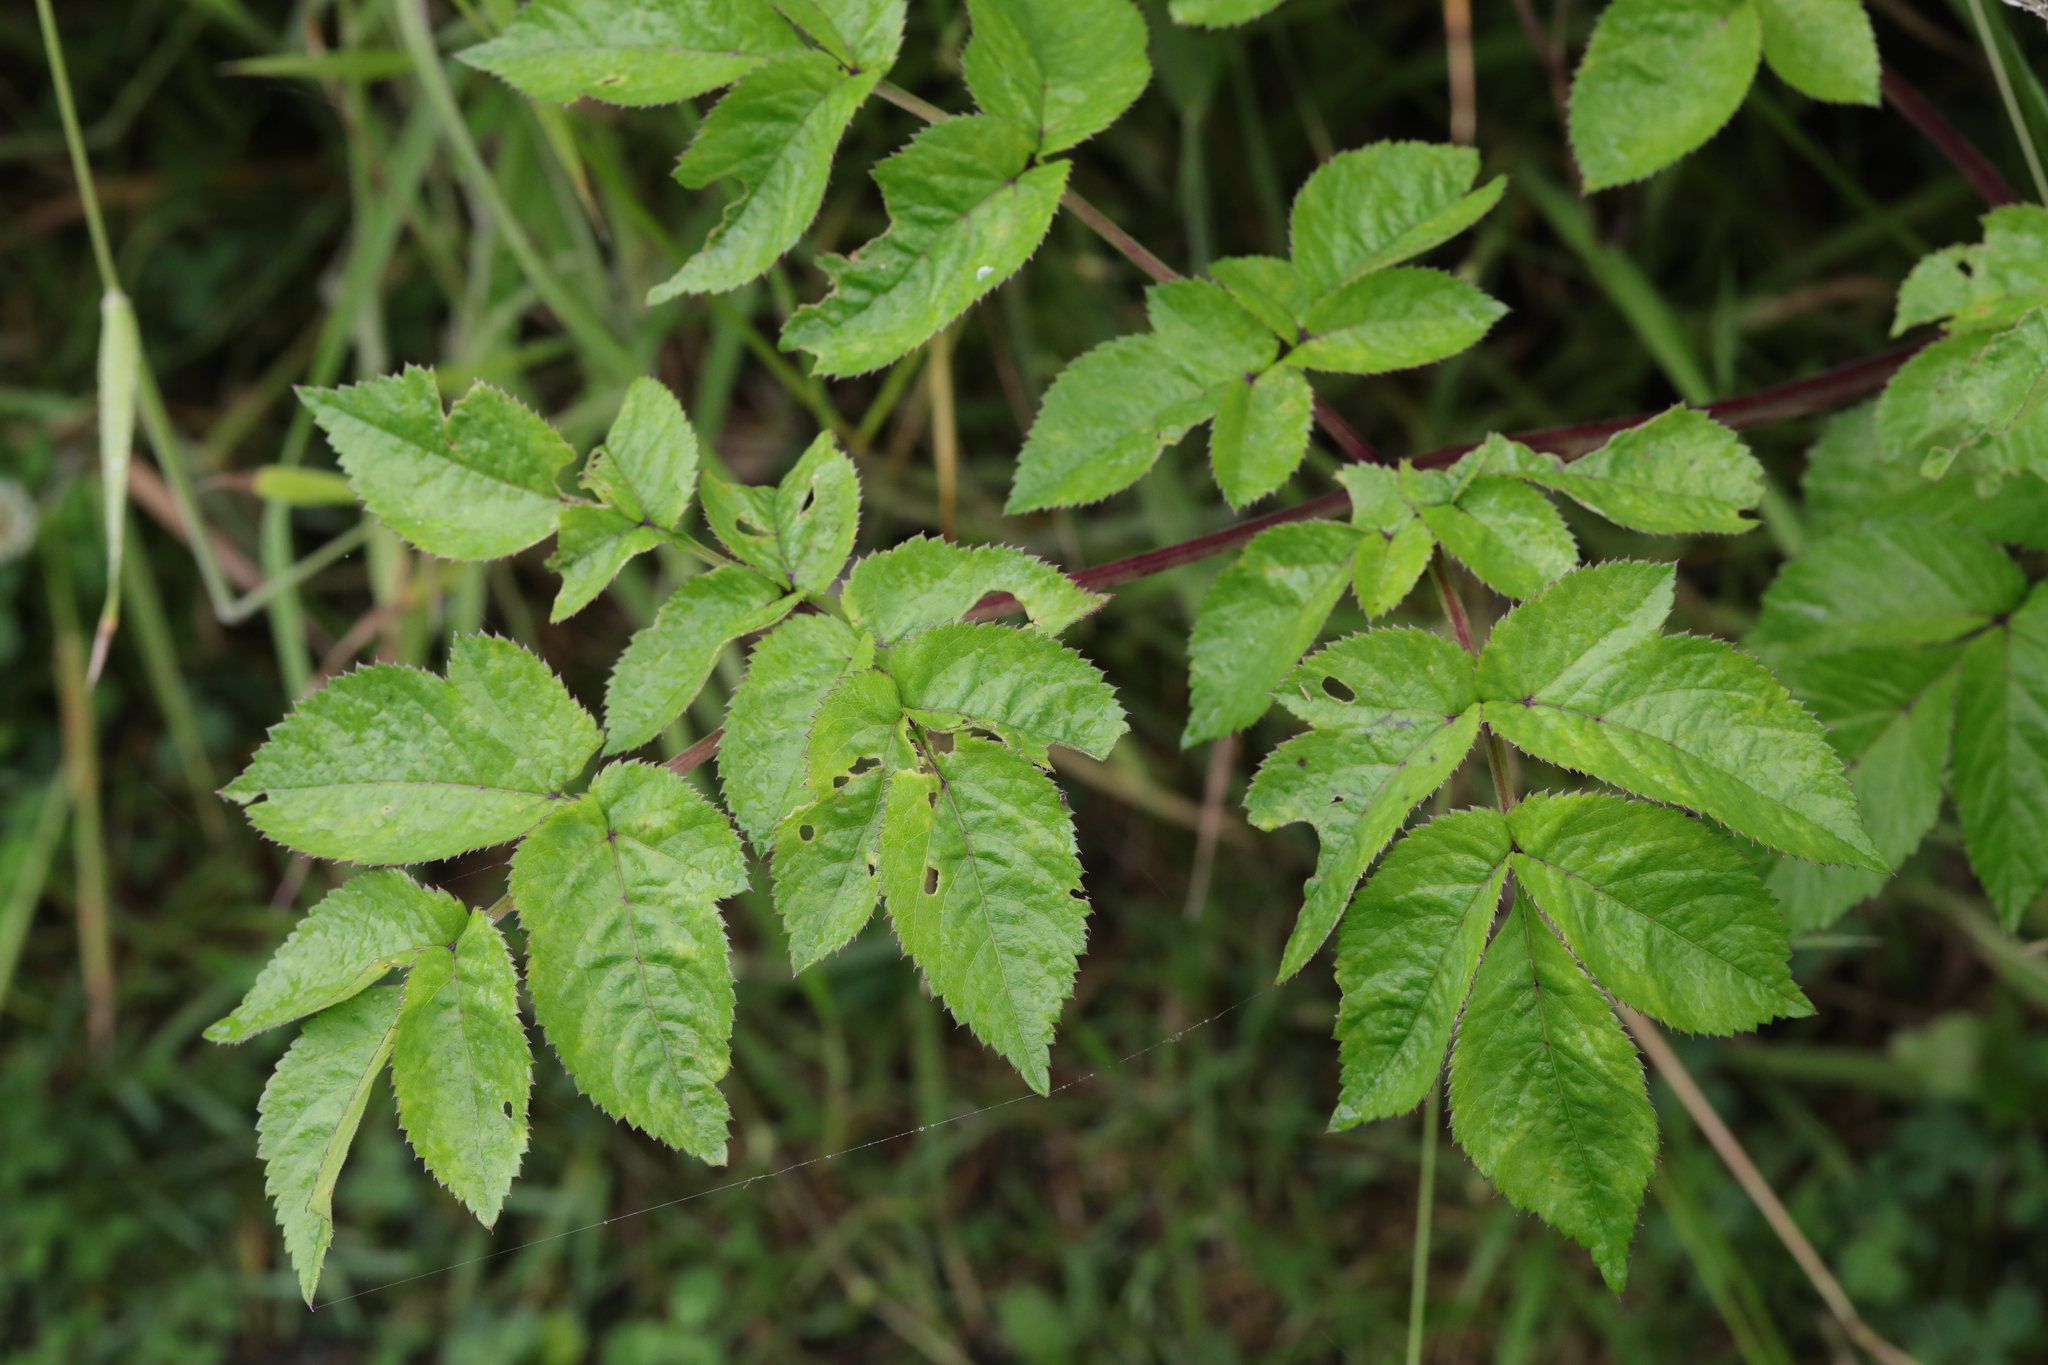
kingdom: Plantae
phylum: Tracheophyta
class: Magnoliopsida
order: Apiales
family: Apiaceae
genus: Angelica
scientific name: Angelica sylvestris
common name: Wild angelica
